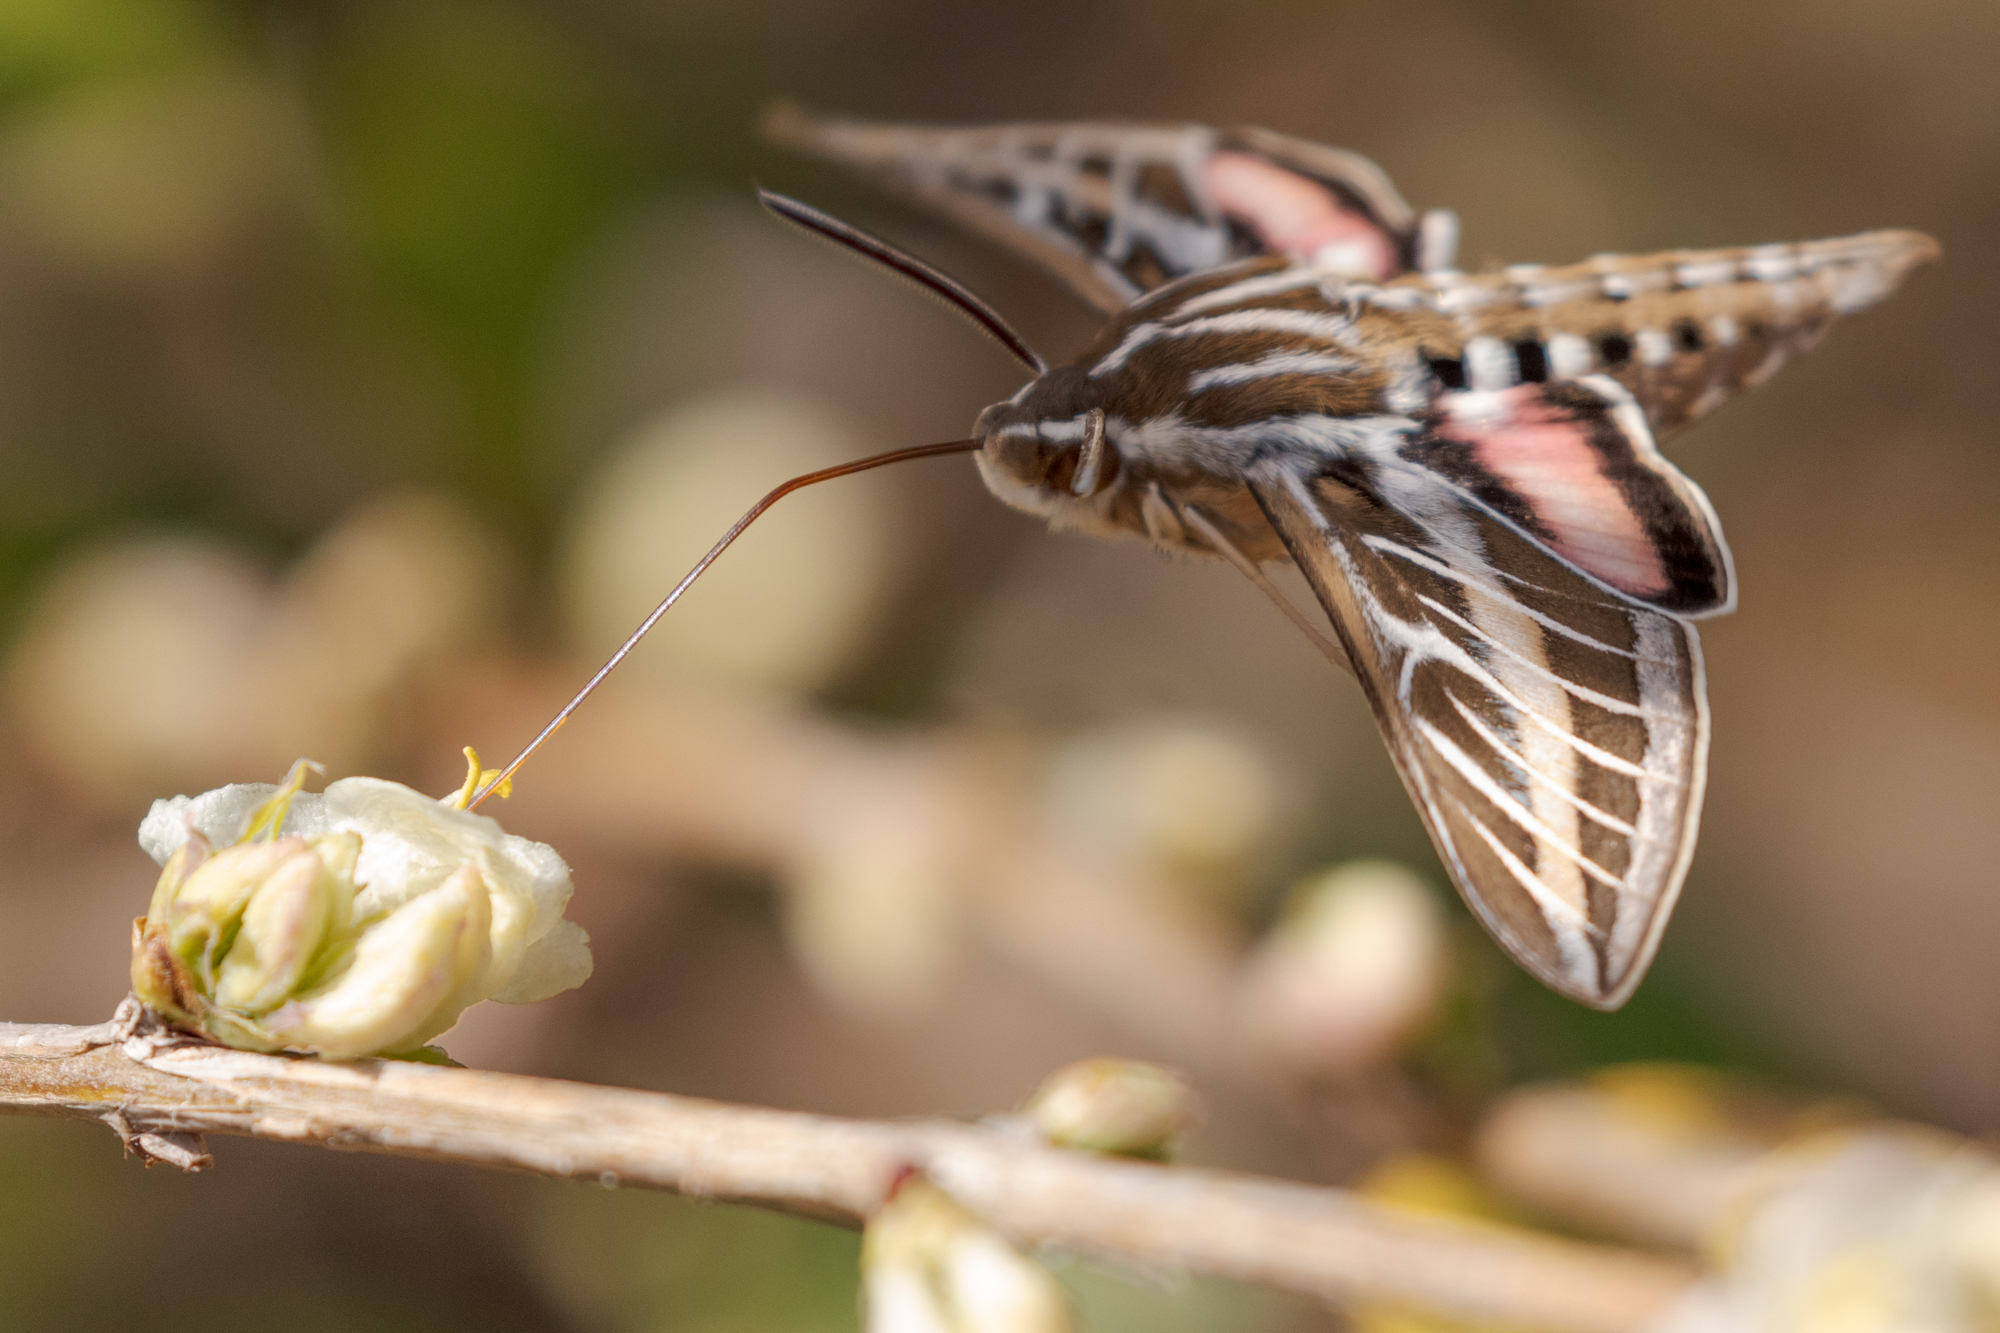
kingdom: Animalia
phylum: Arthropoda
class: Insecta
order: Lepidoptera
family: Sphingidae
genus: Hyles
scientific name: Hyles lineata
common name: White-lined sphinx
